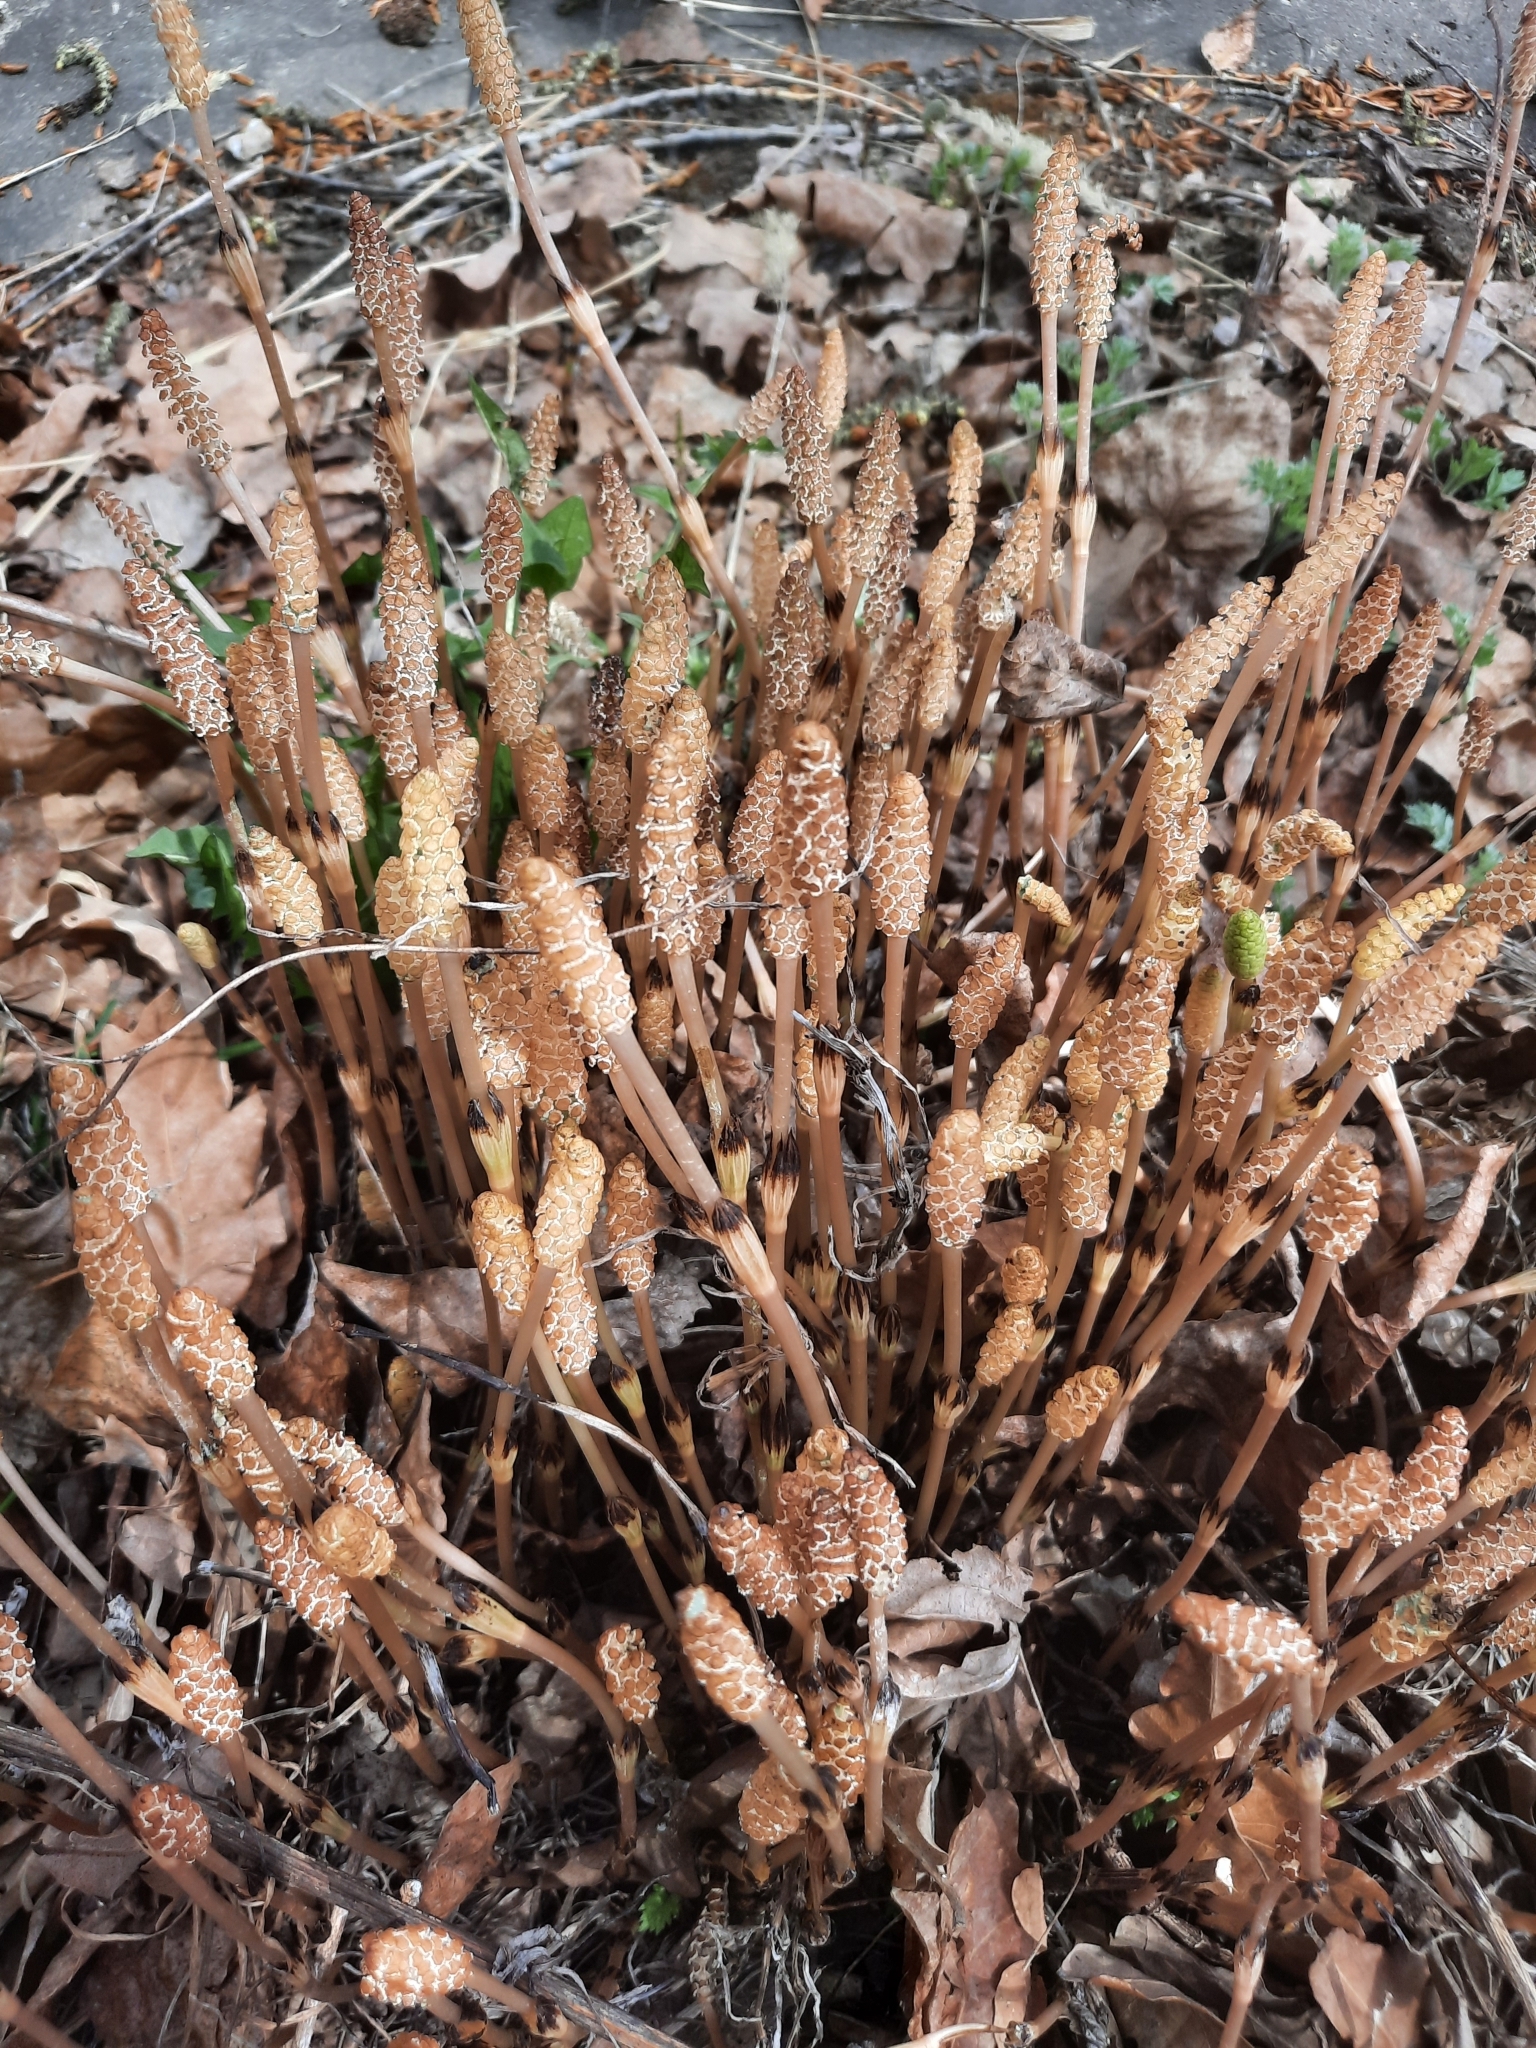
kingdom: Plantae
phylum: Tracheophyta
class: Polypodiopsida
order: Equisetales
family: Equisetaceae
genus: Equisetum
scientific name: Equisetum arvense
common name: Field horsetail
